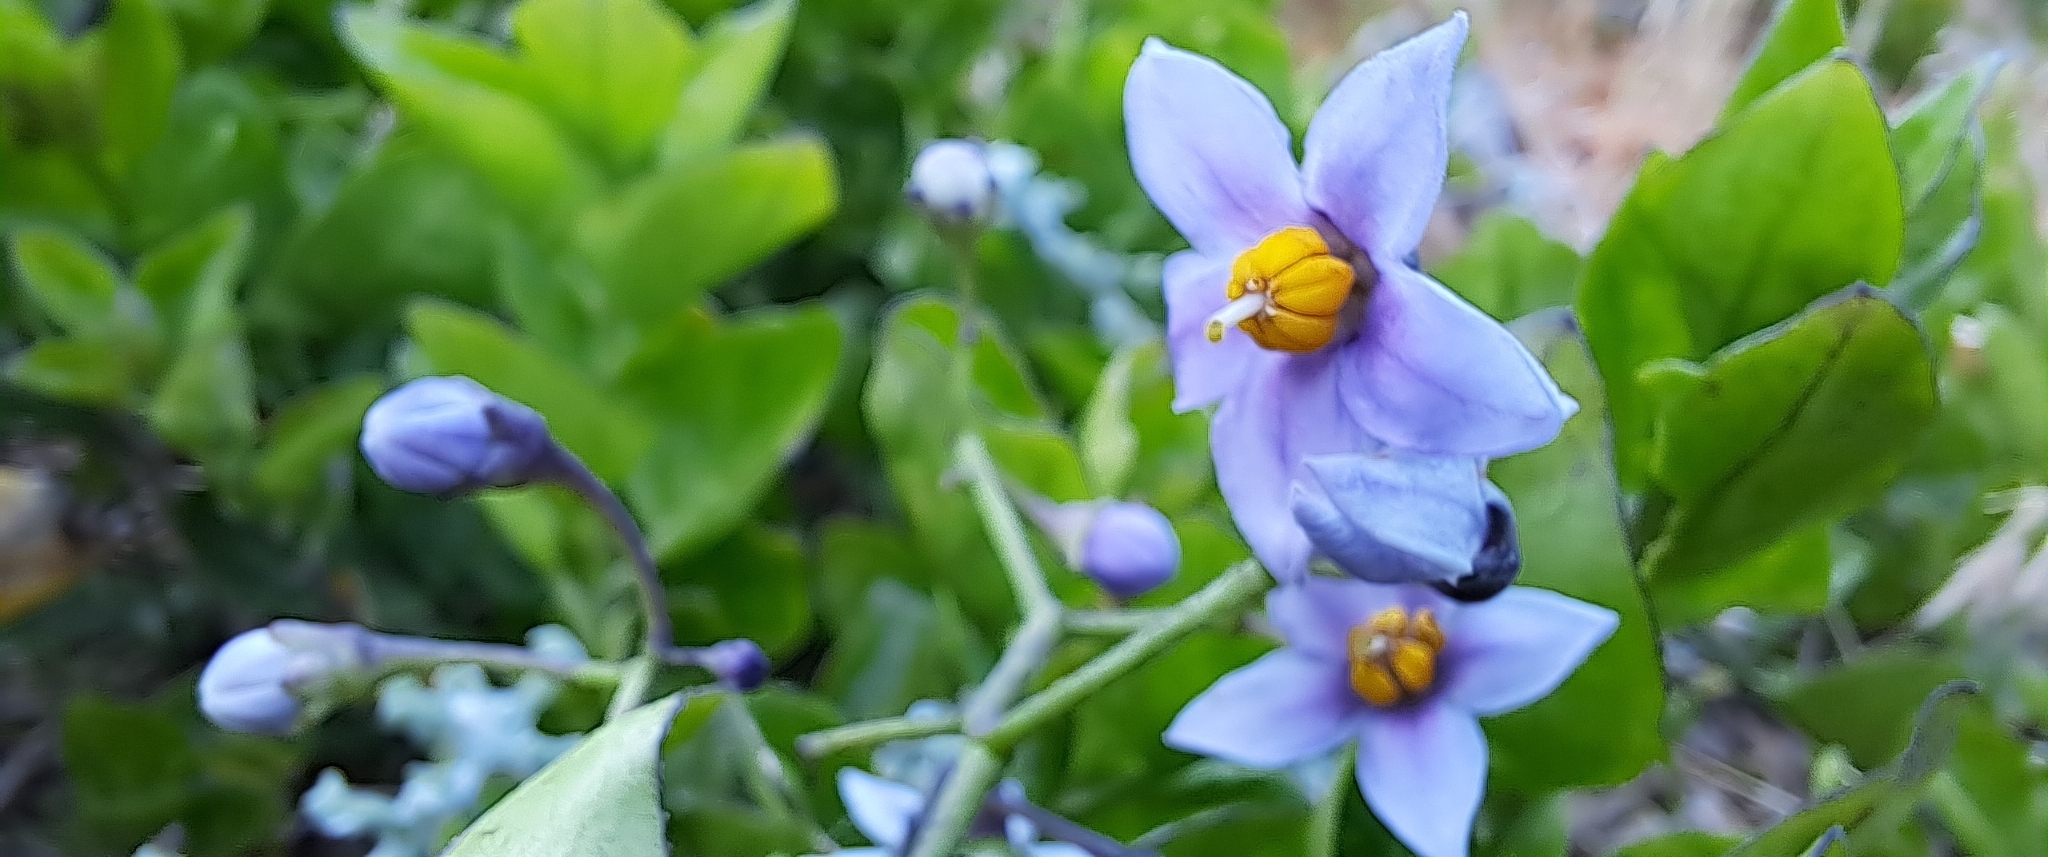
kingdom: Plantae
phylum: Tracheophyta
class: Magnoliopsida
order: Solanales
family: Solanaceae
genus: Solanum
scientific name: Solanum africanum
